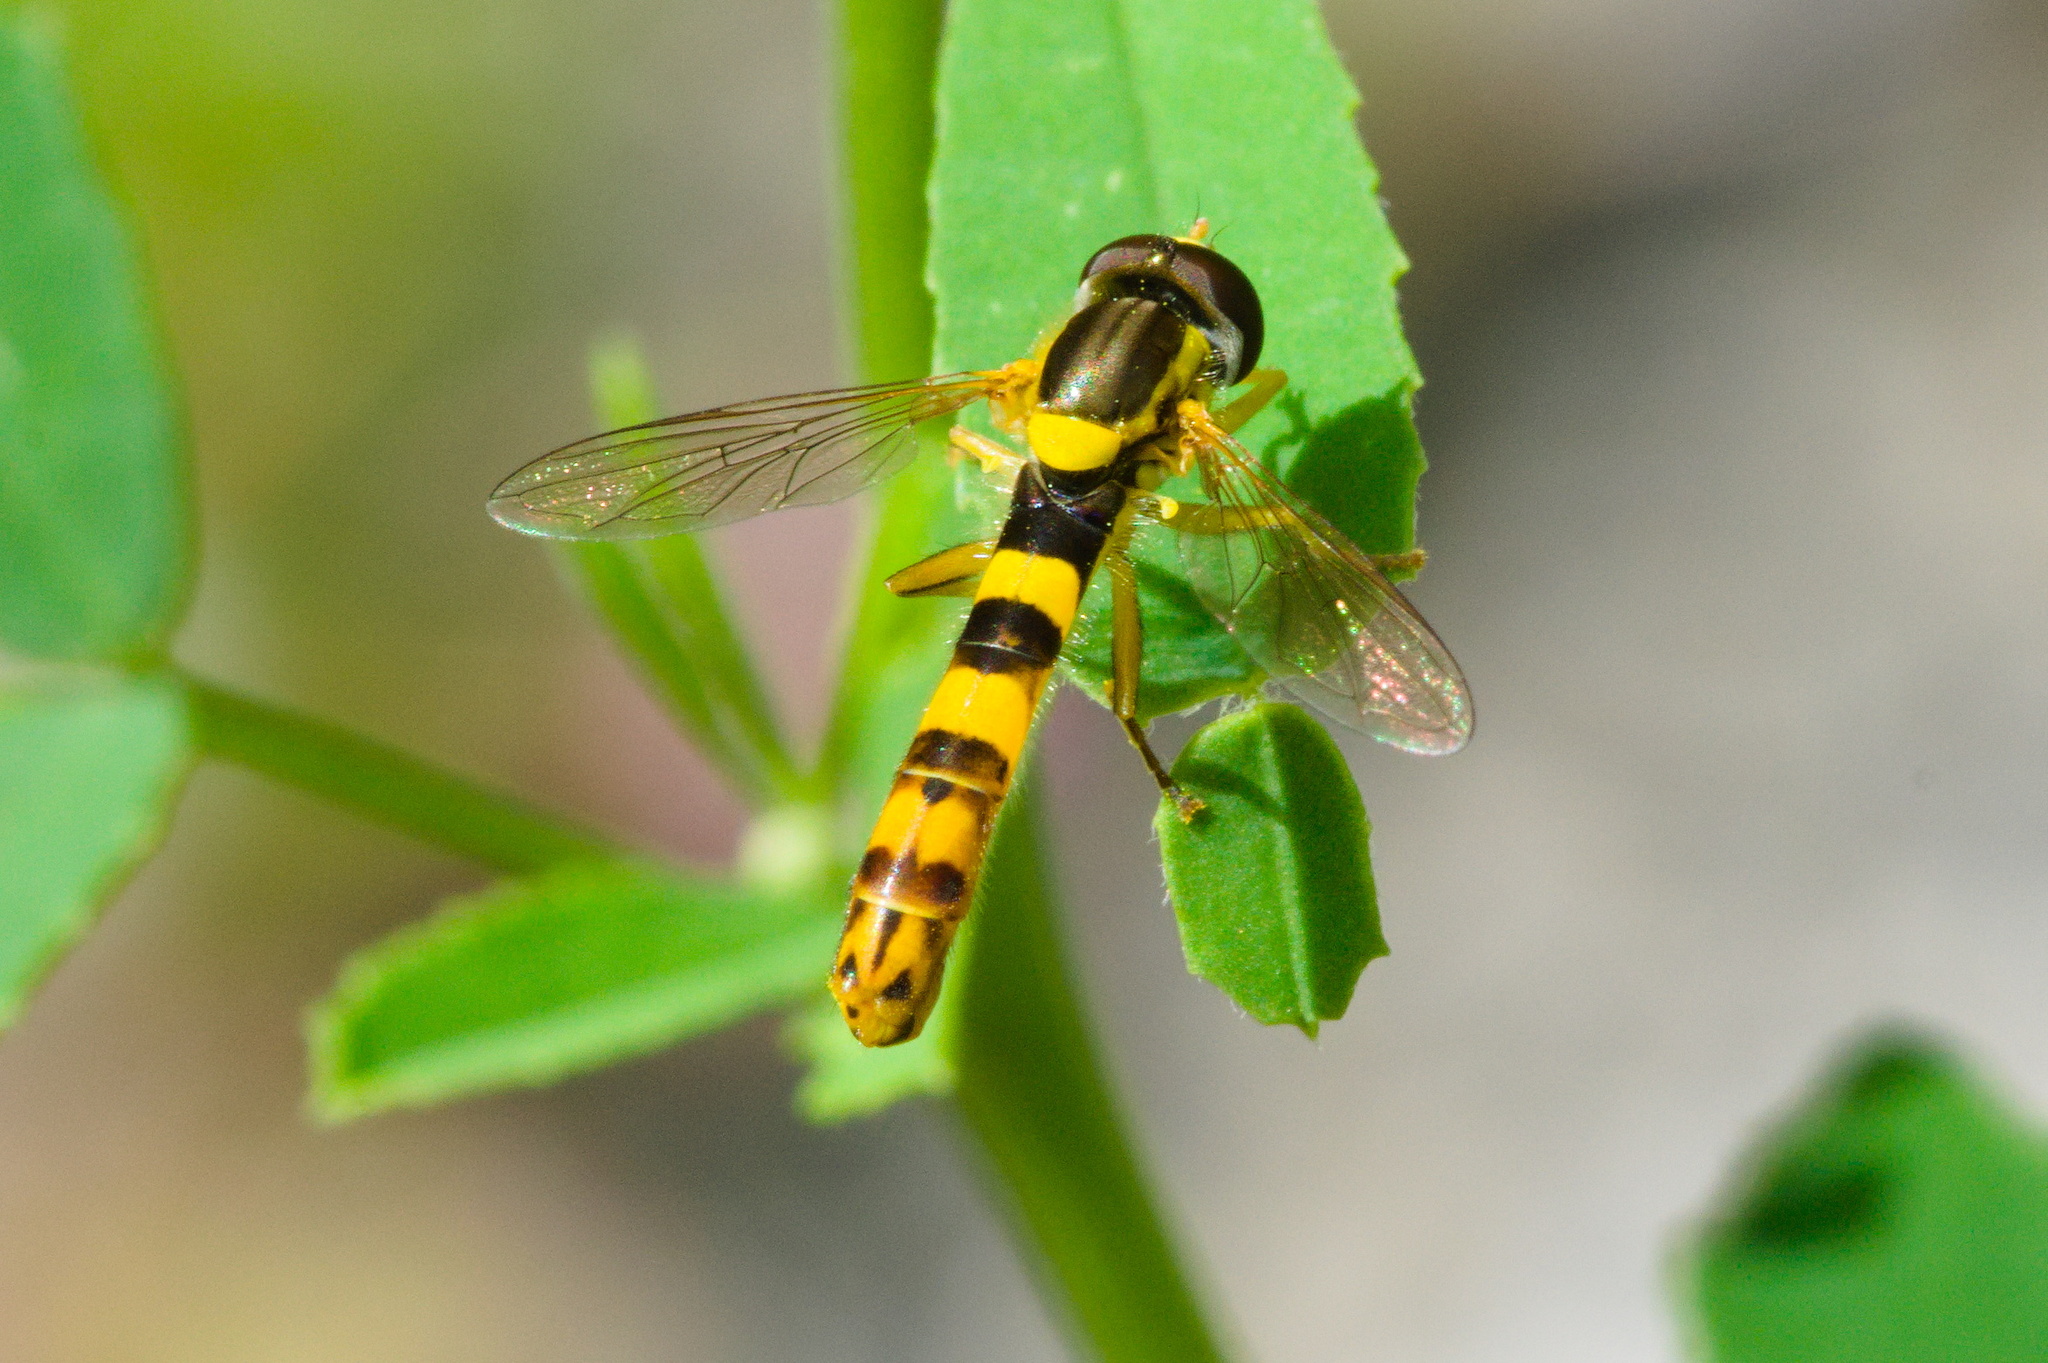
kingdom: Animalia
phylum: Arthropoda
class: Insecta
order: Diptera
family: Syrphidae
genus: Sphaerophoria
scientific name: Sphaerophoria scripta
